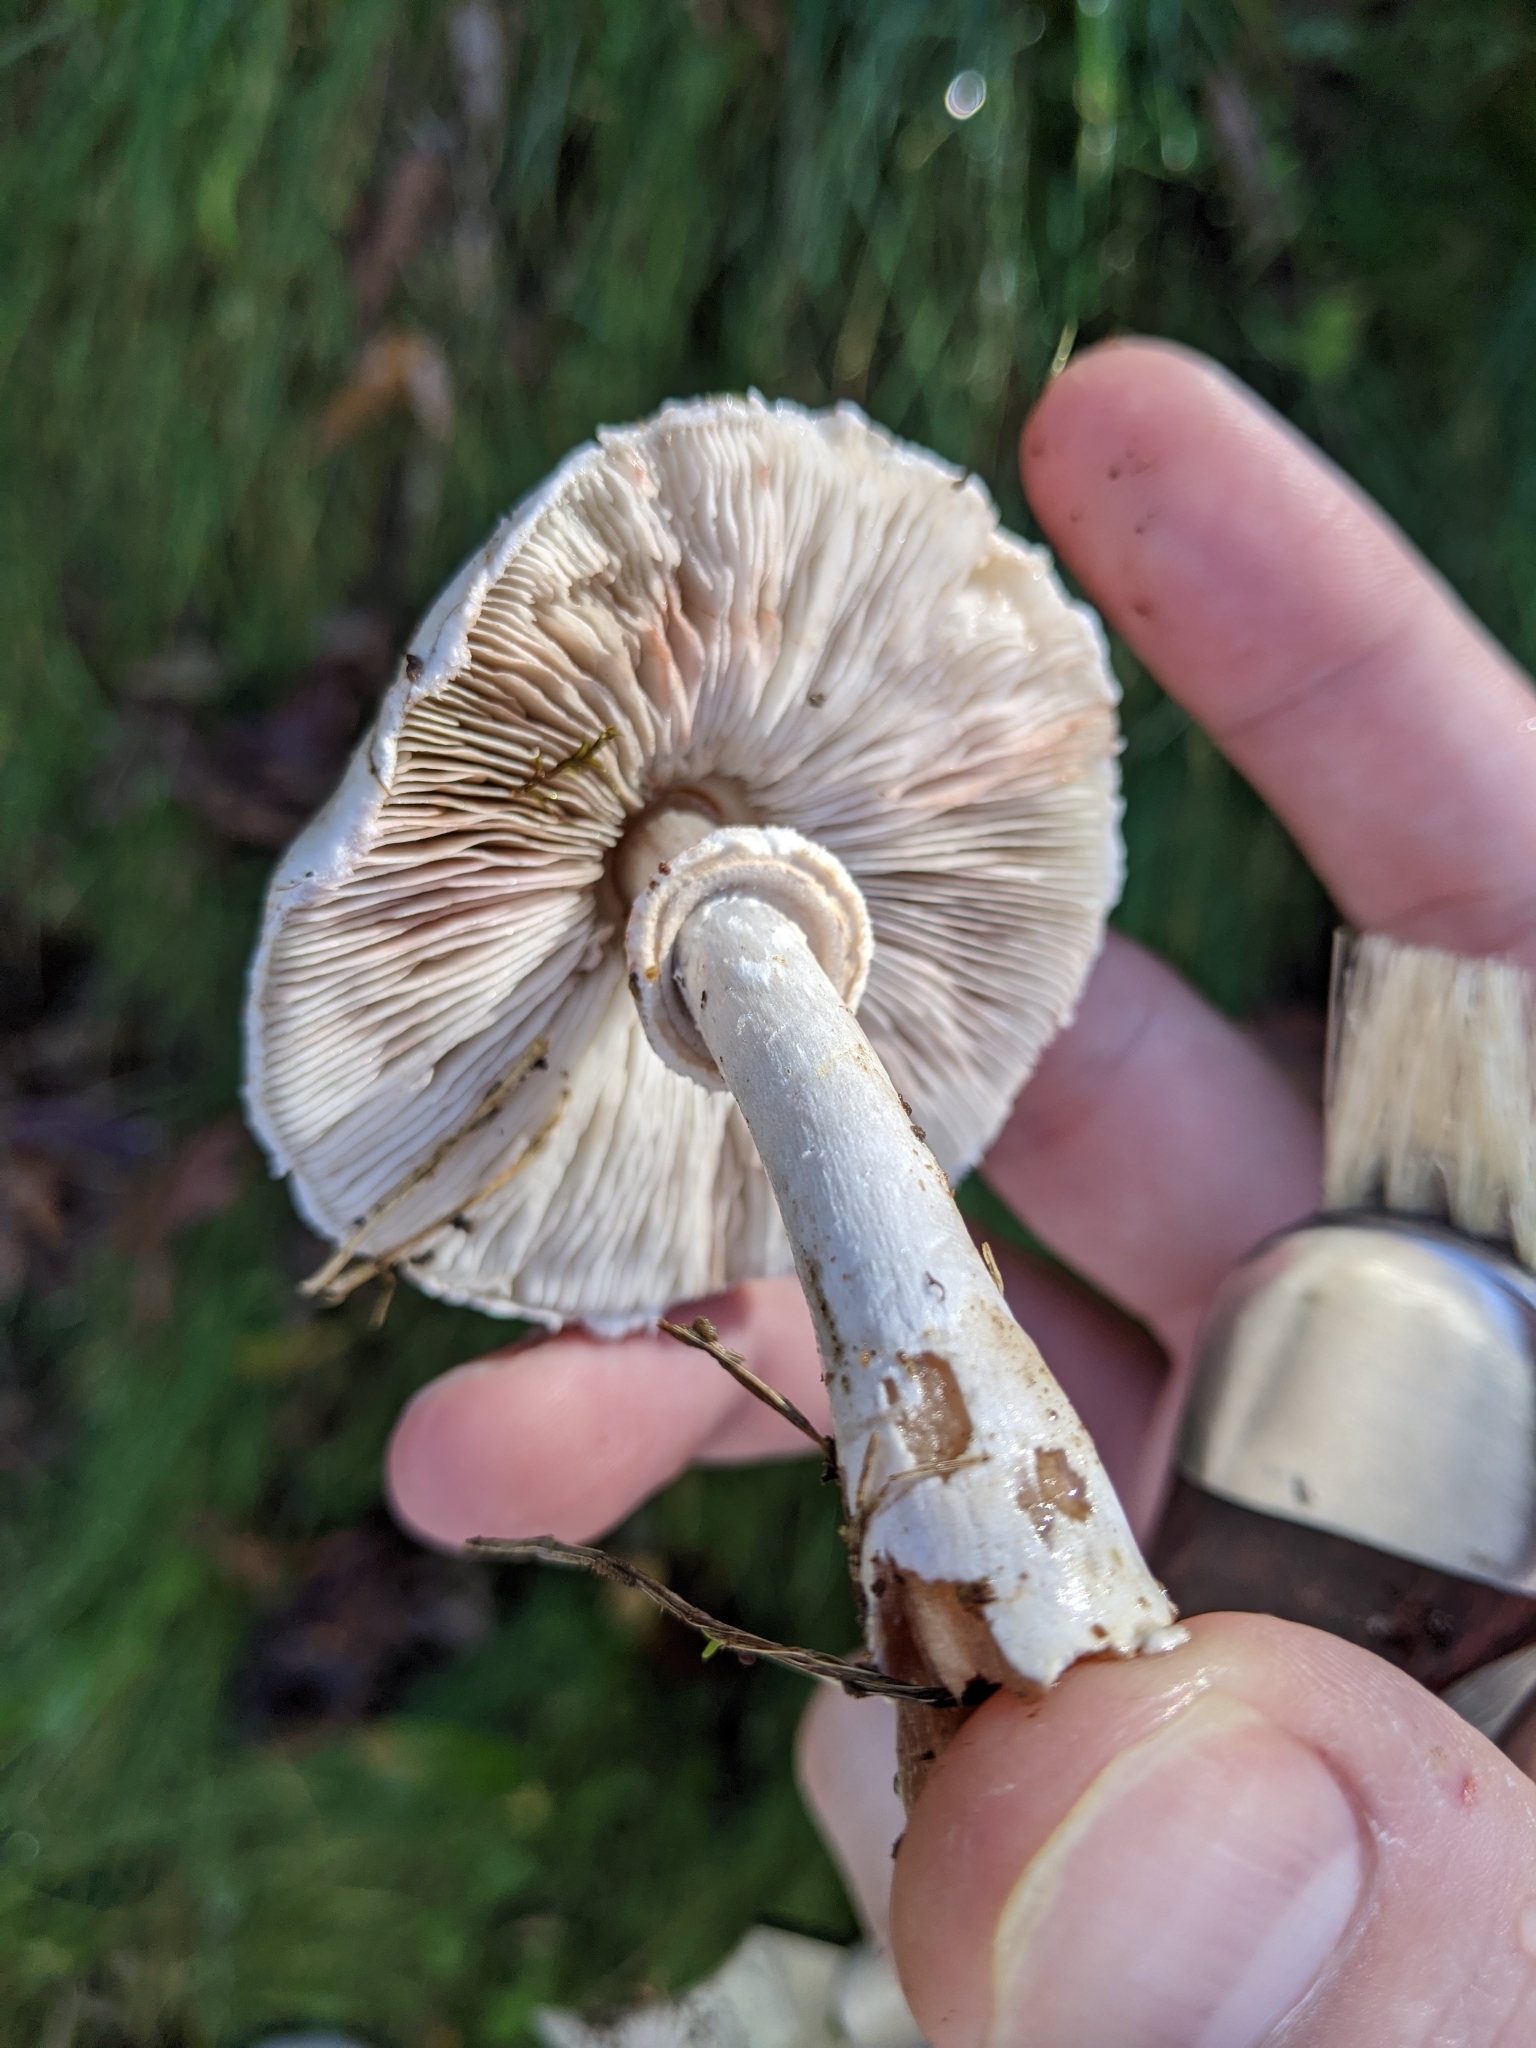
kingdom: Fungi
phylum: Basidiomycota
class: Agaricomycetes
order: Agaricales
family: Agaricaceae
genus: Leucoagaricus
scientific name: Leucoagaricus leucothites
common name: White dapperling
